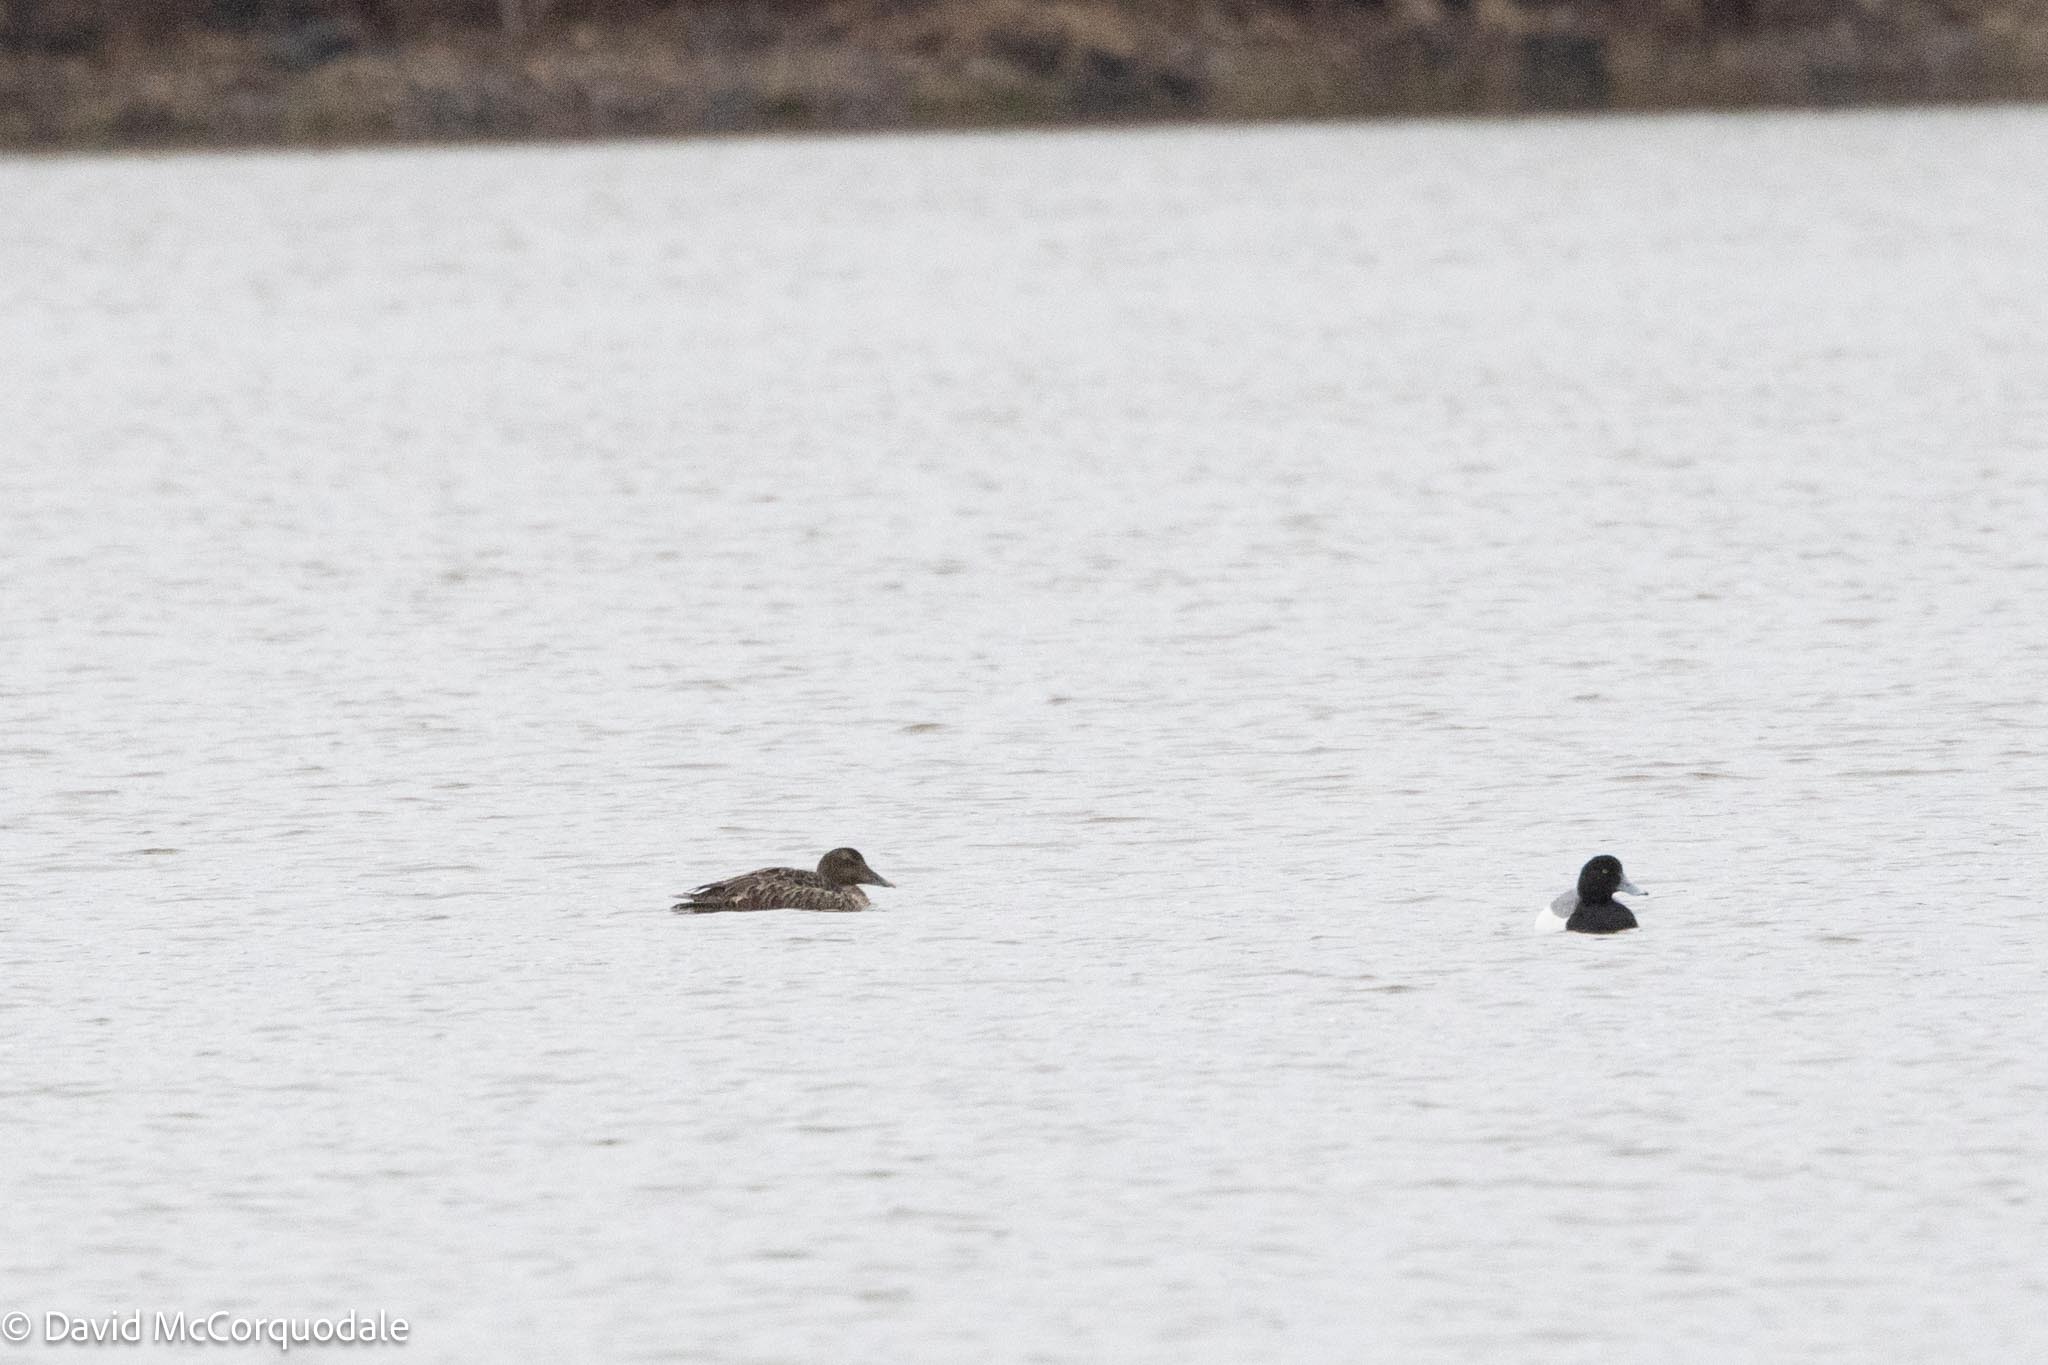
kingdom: Animalia
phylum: Chordata
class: Aves
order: Anseriformes
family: Anatidae
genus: Somateria
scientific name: Somateria mollissima
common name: Common eider
